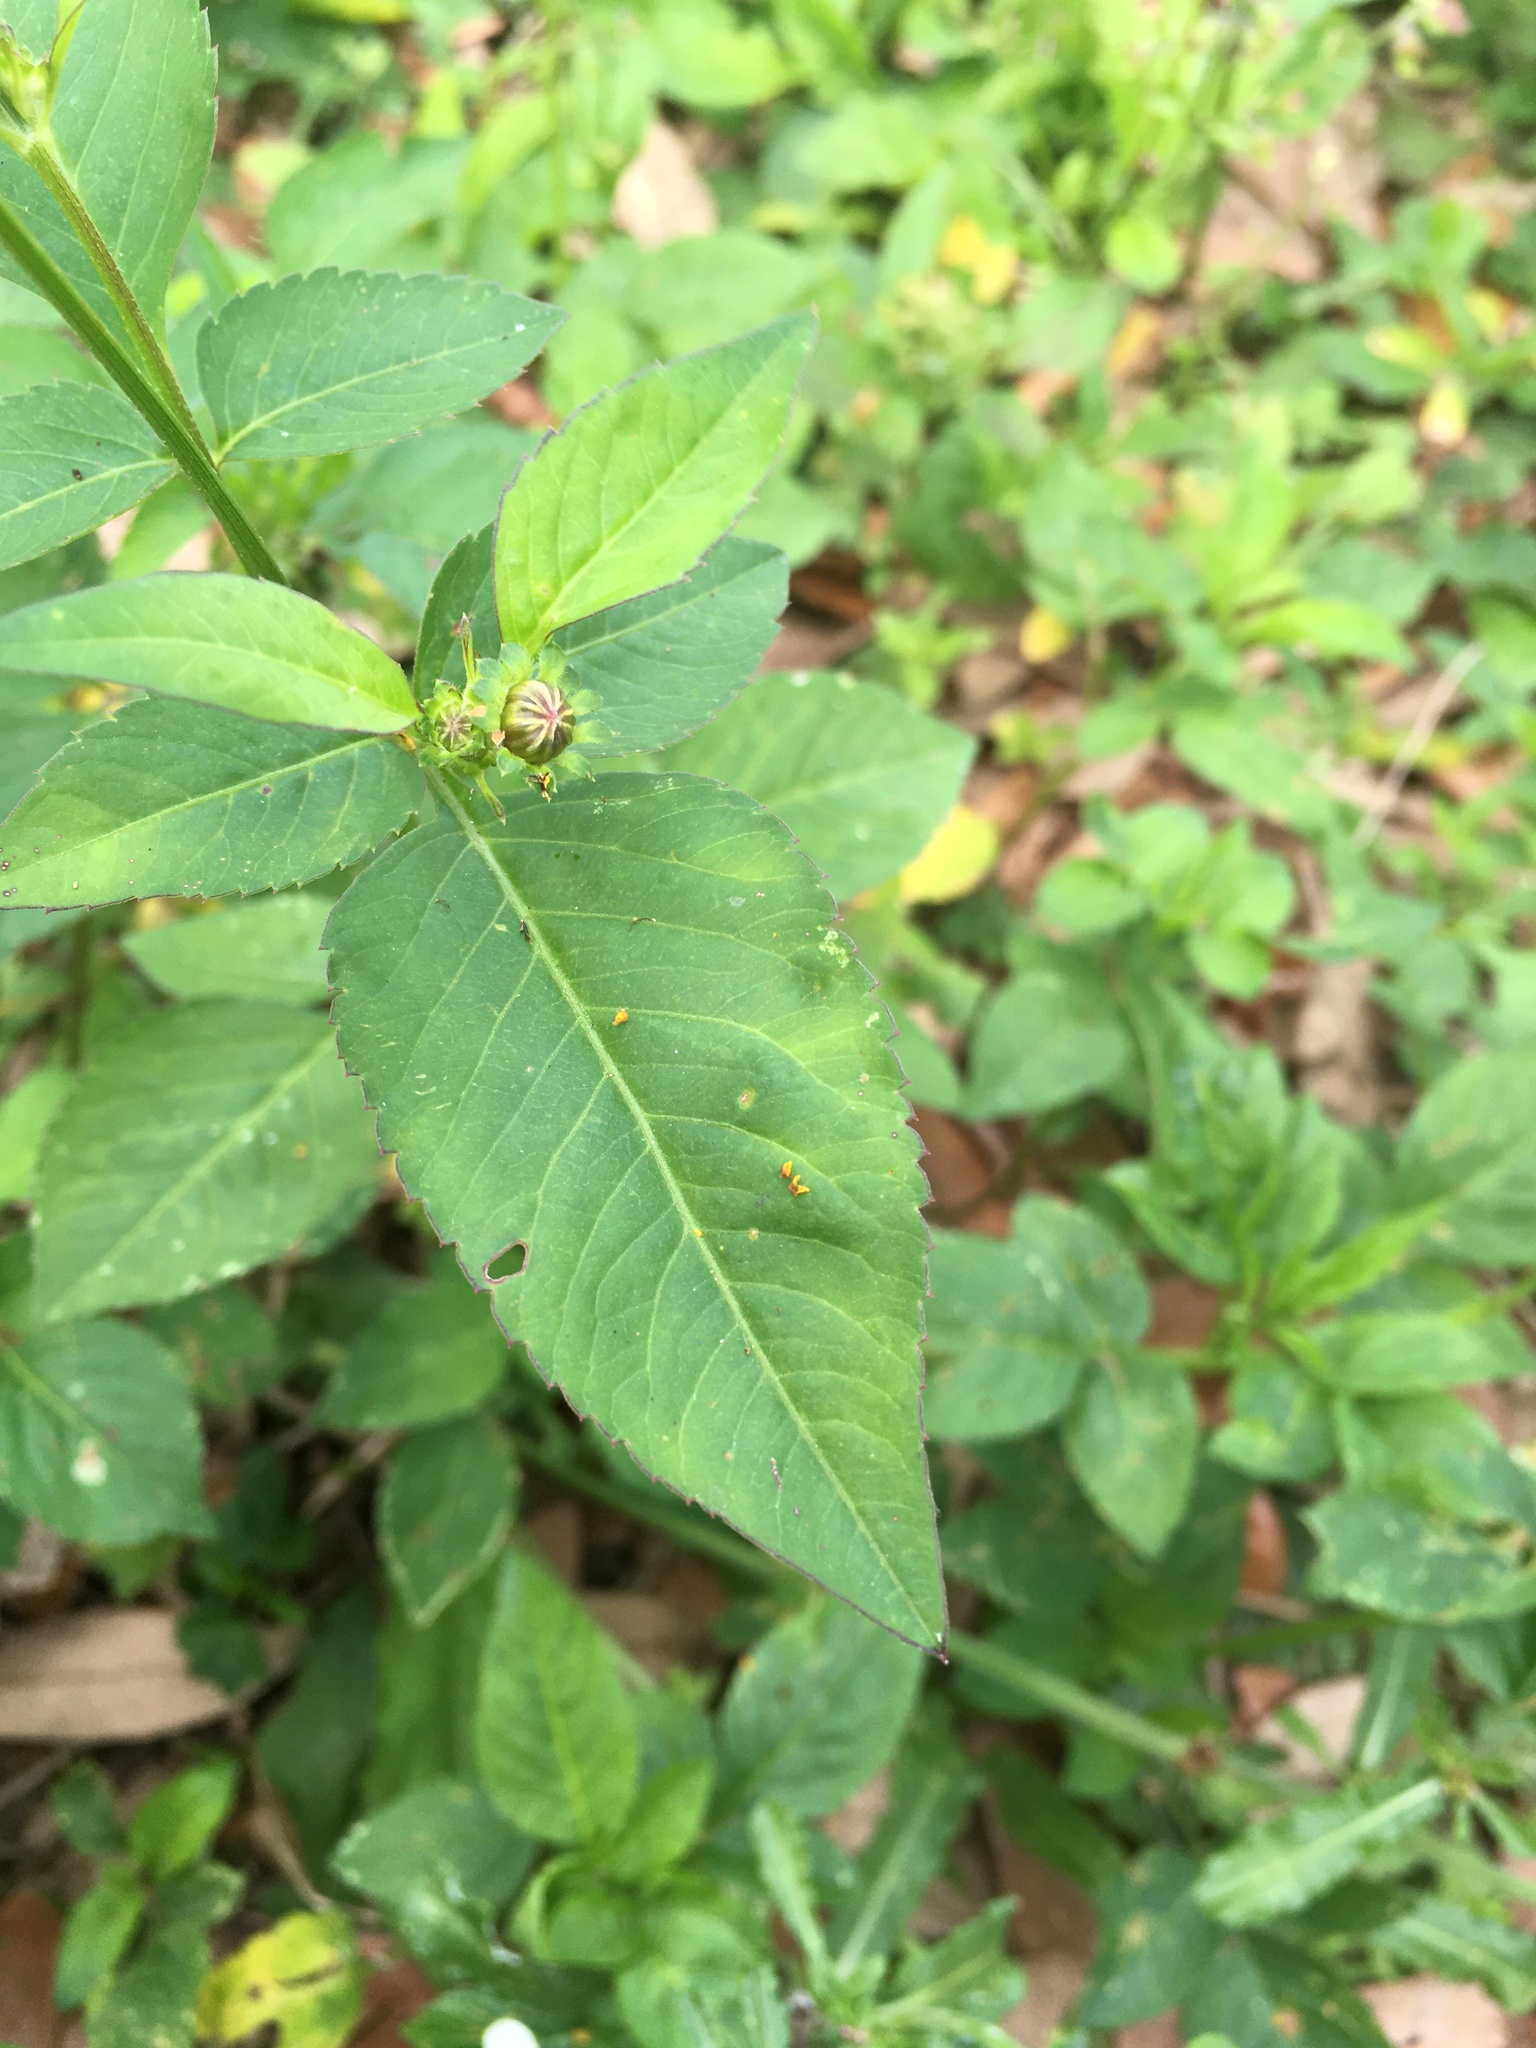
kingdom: Plantae
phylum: Tracheophyta
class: Magnoliopsida
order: Asterales
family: Asteraceae
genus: Bidens
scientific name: Bidens alba
